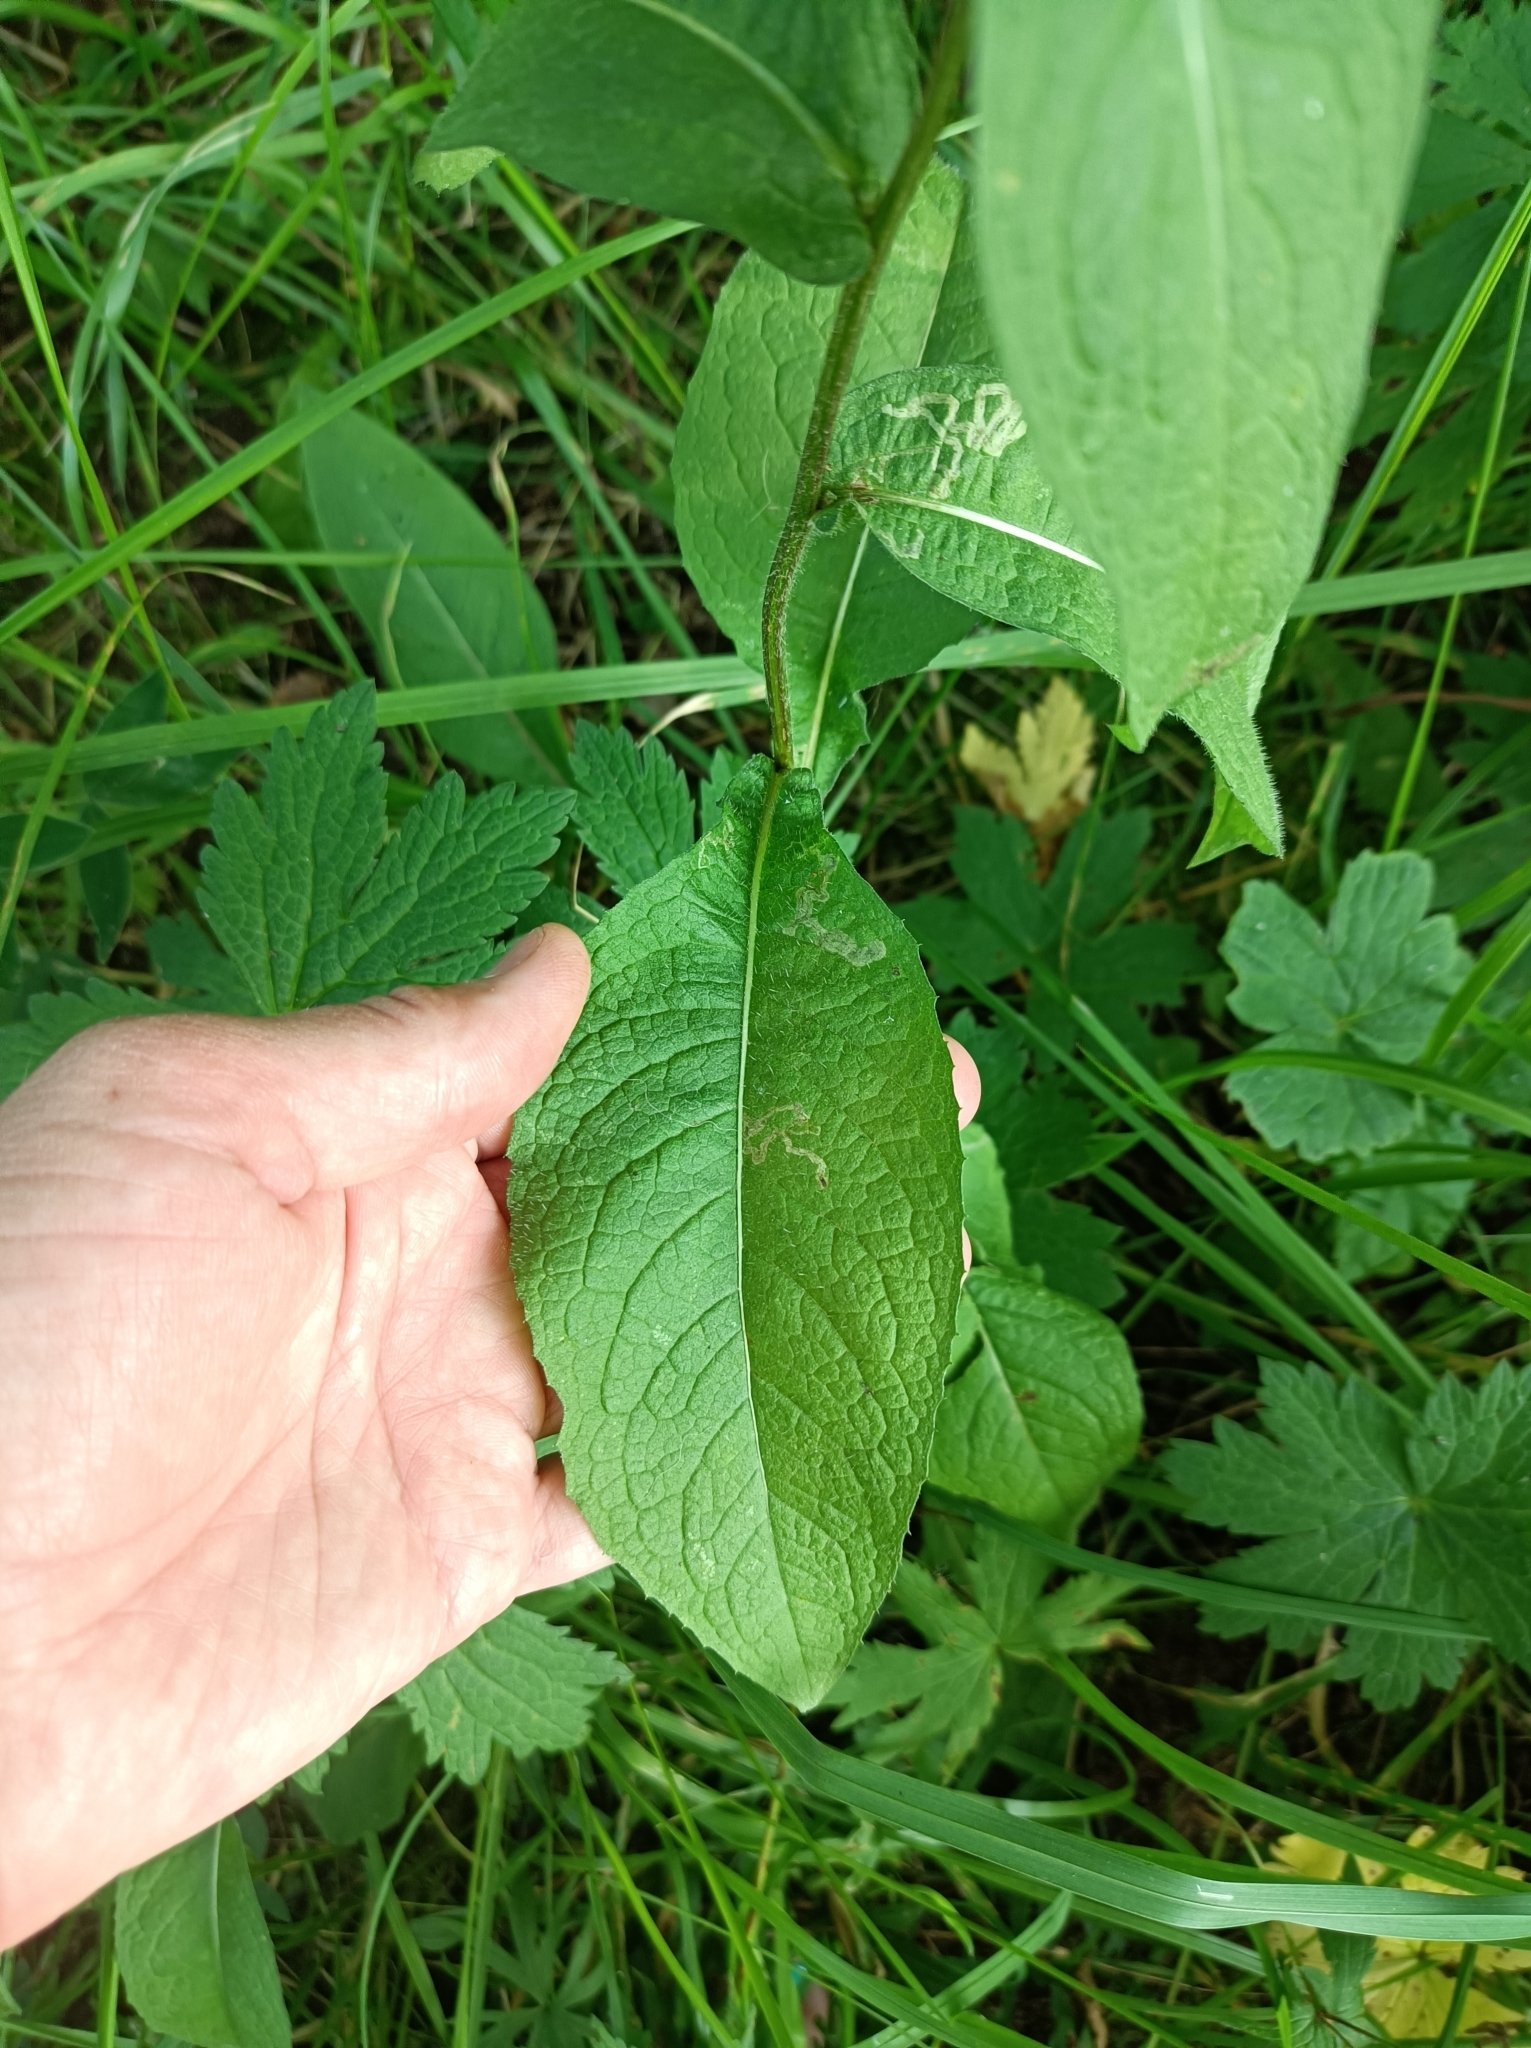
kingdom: Plantae
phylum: Tracheophyta
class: Magnoliopsida
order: Asterales
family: Asteraceae
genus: Centaurea
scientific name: Centaurea phrygia
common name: Wig knapweed
